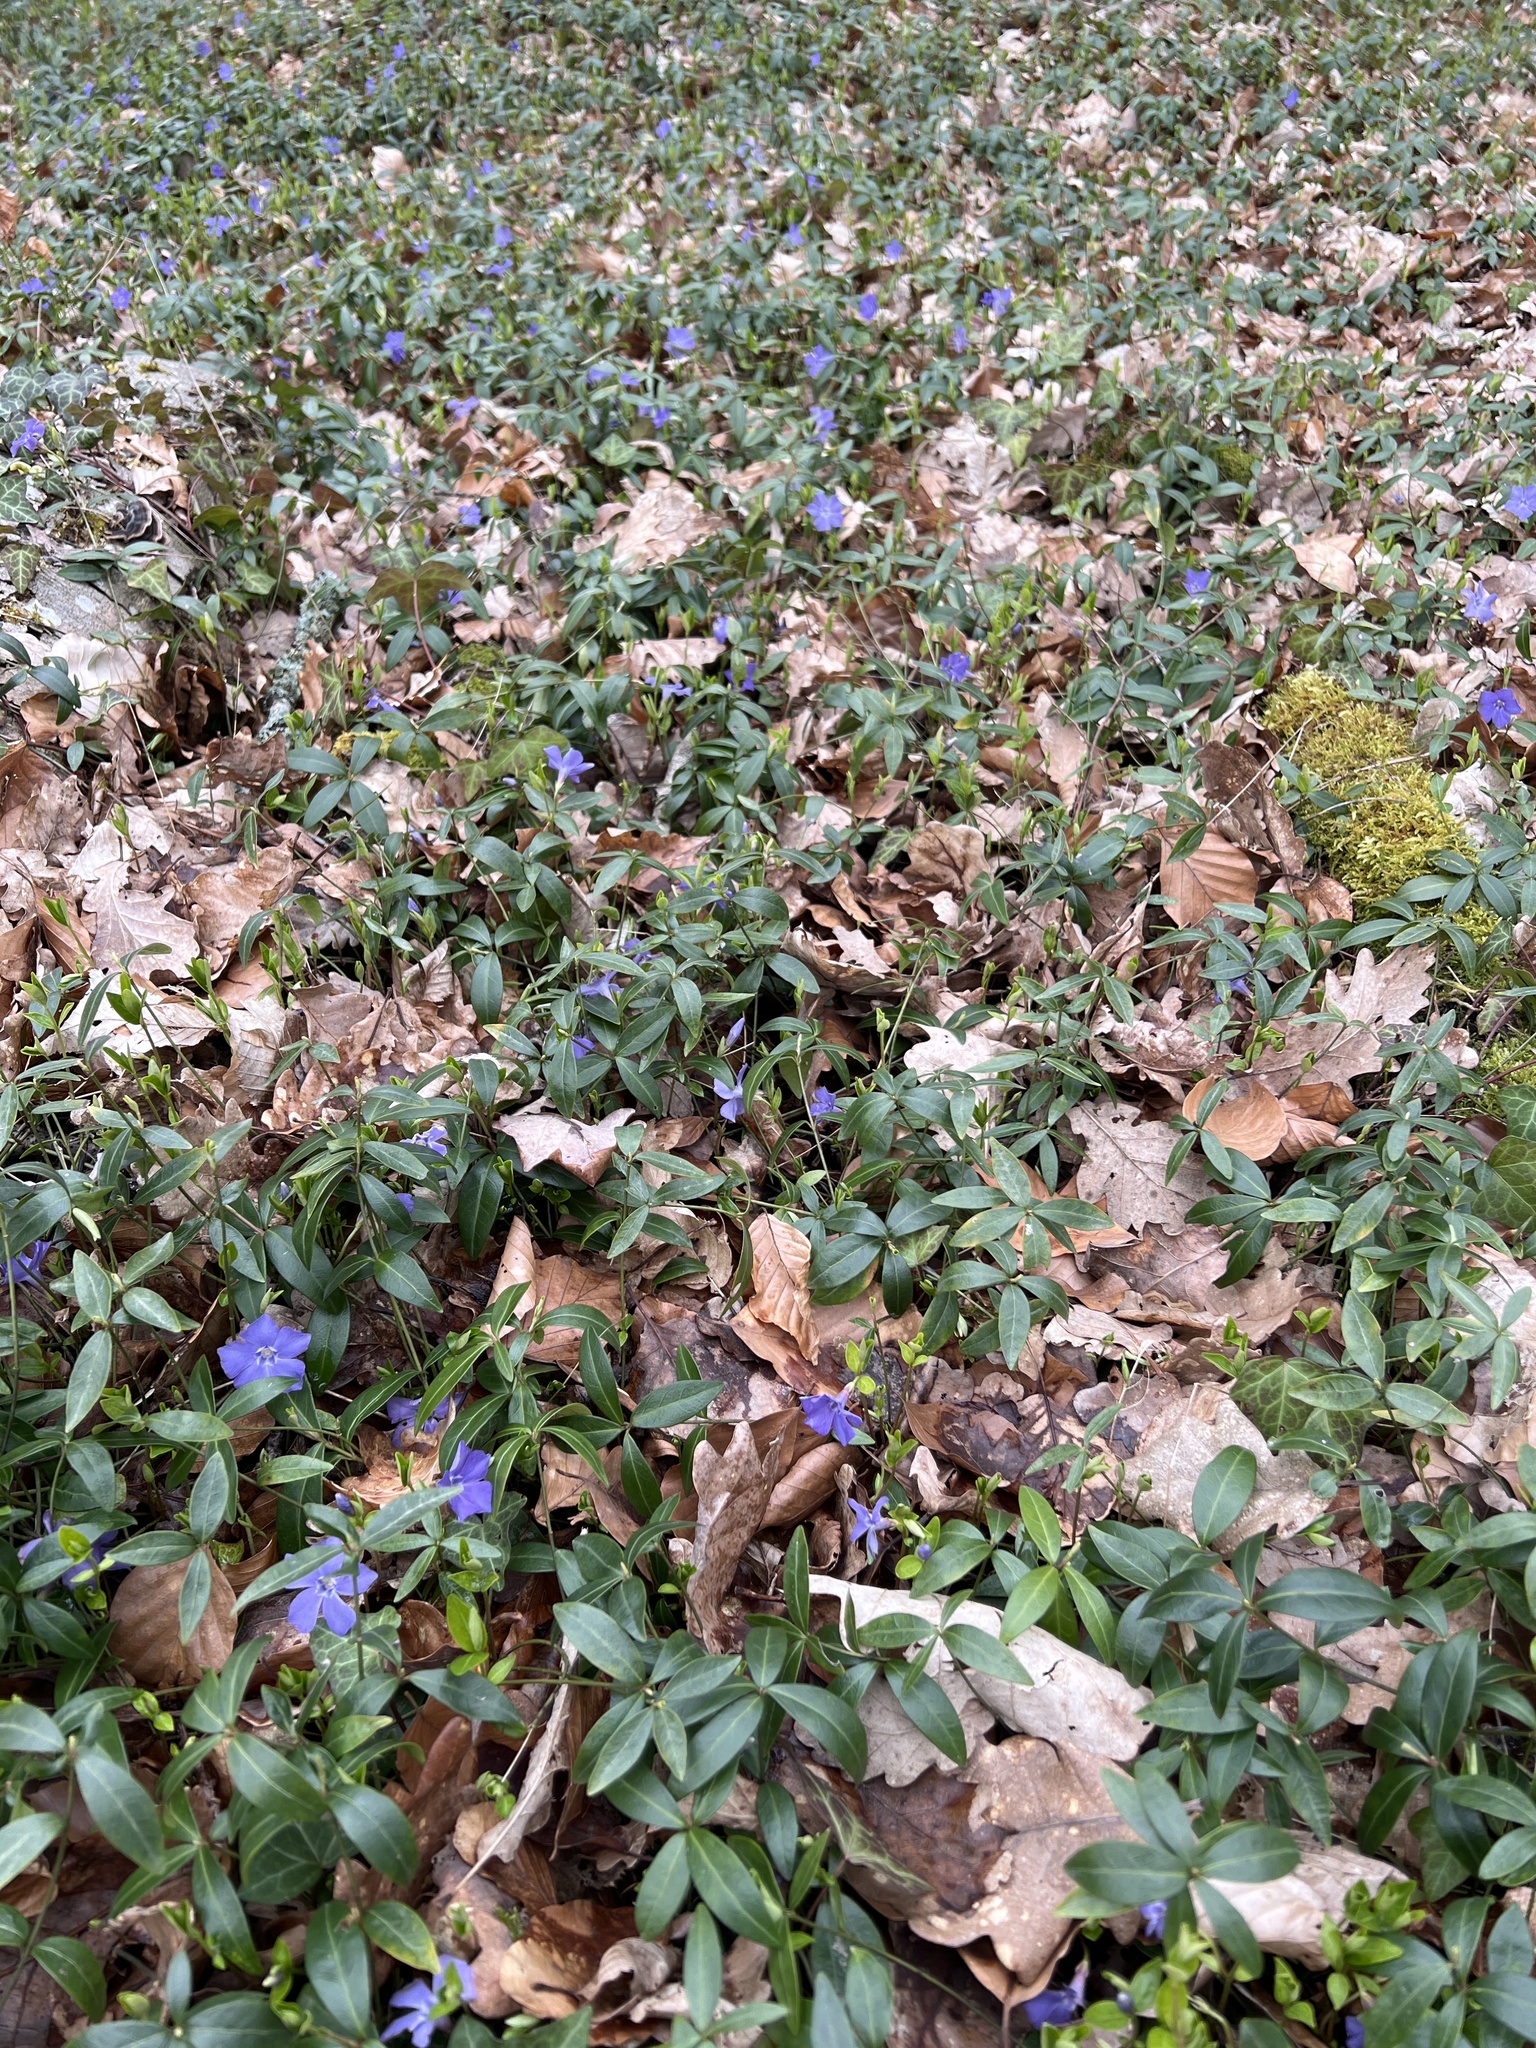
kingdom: Plantae
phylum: Tracheophyta
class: Magnoliopsida
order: Gentianales
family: Apocynaceae
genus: Vinca
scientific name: Vinca minor
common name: Lesser periwinkle
